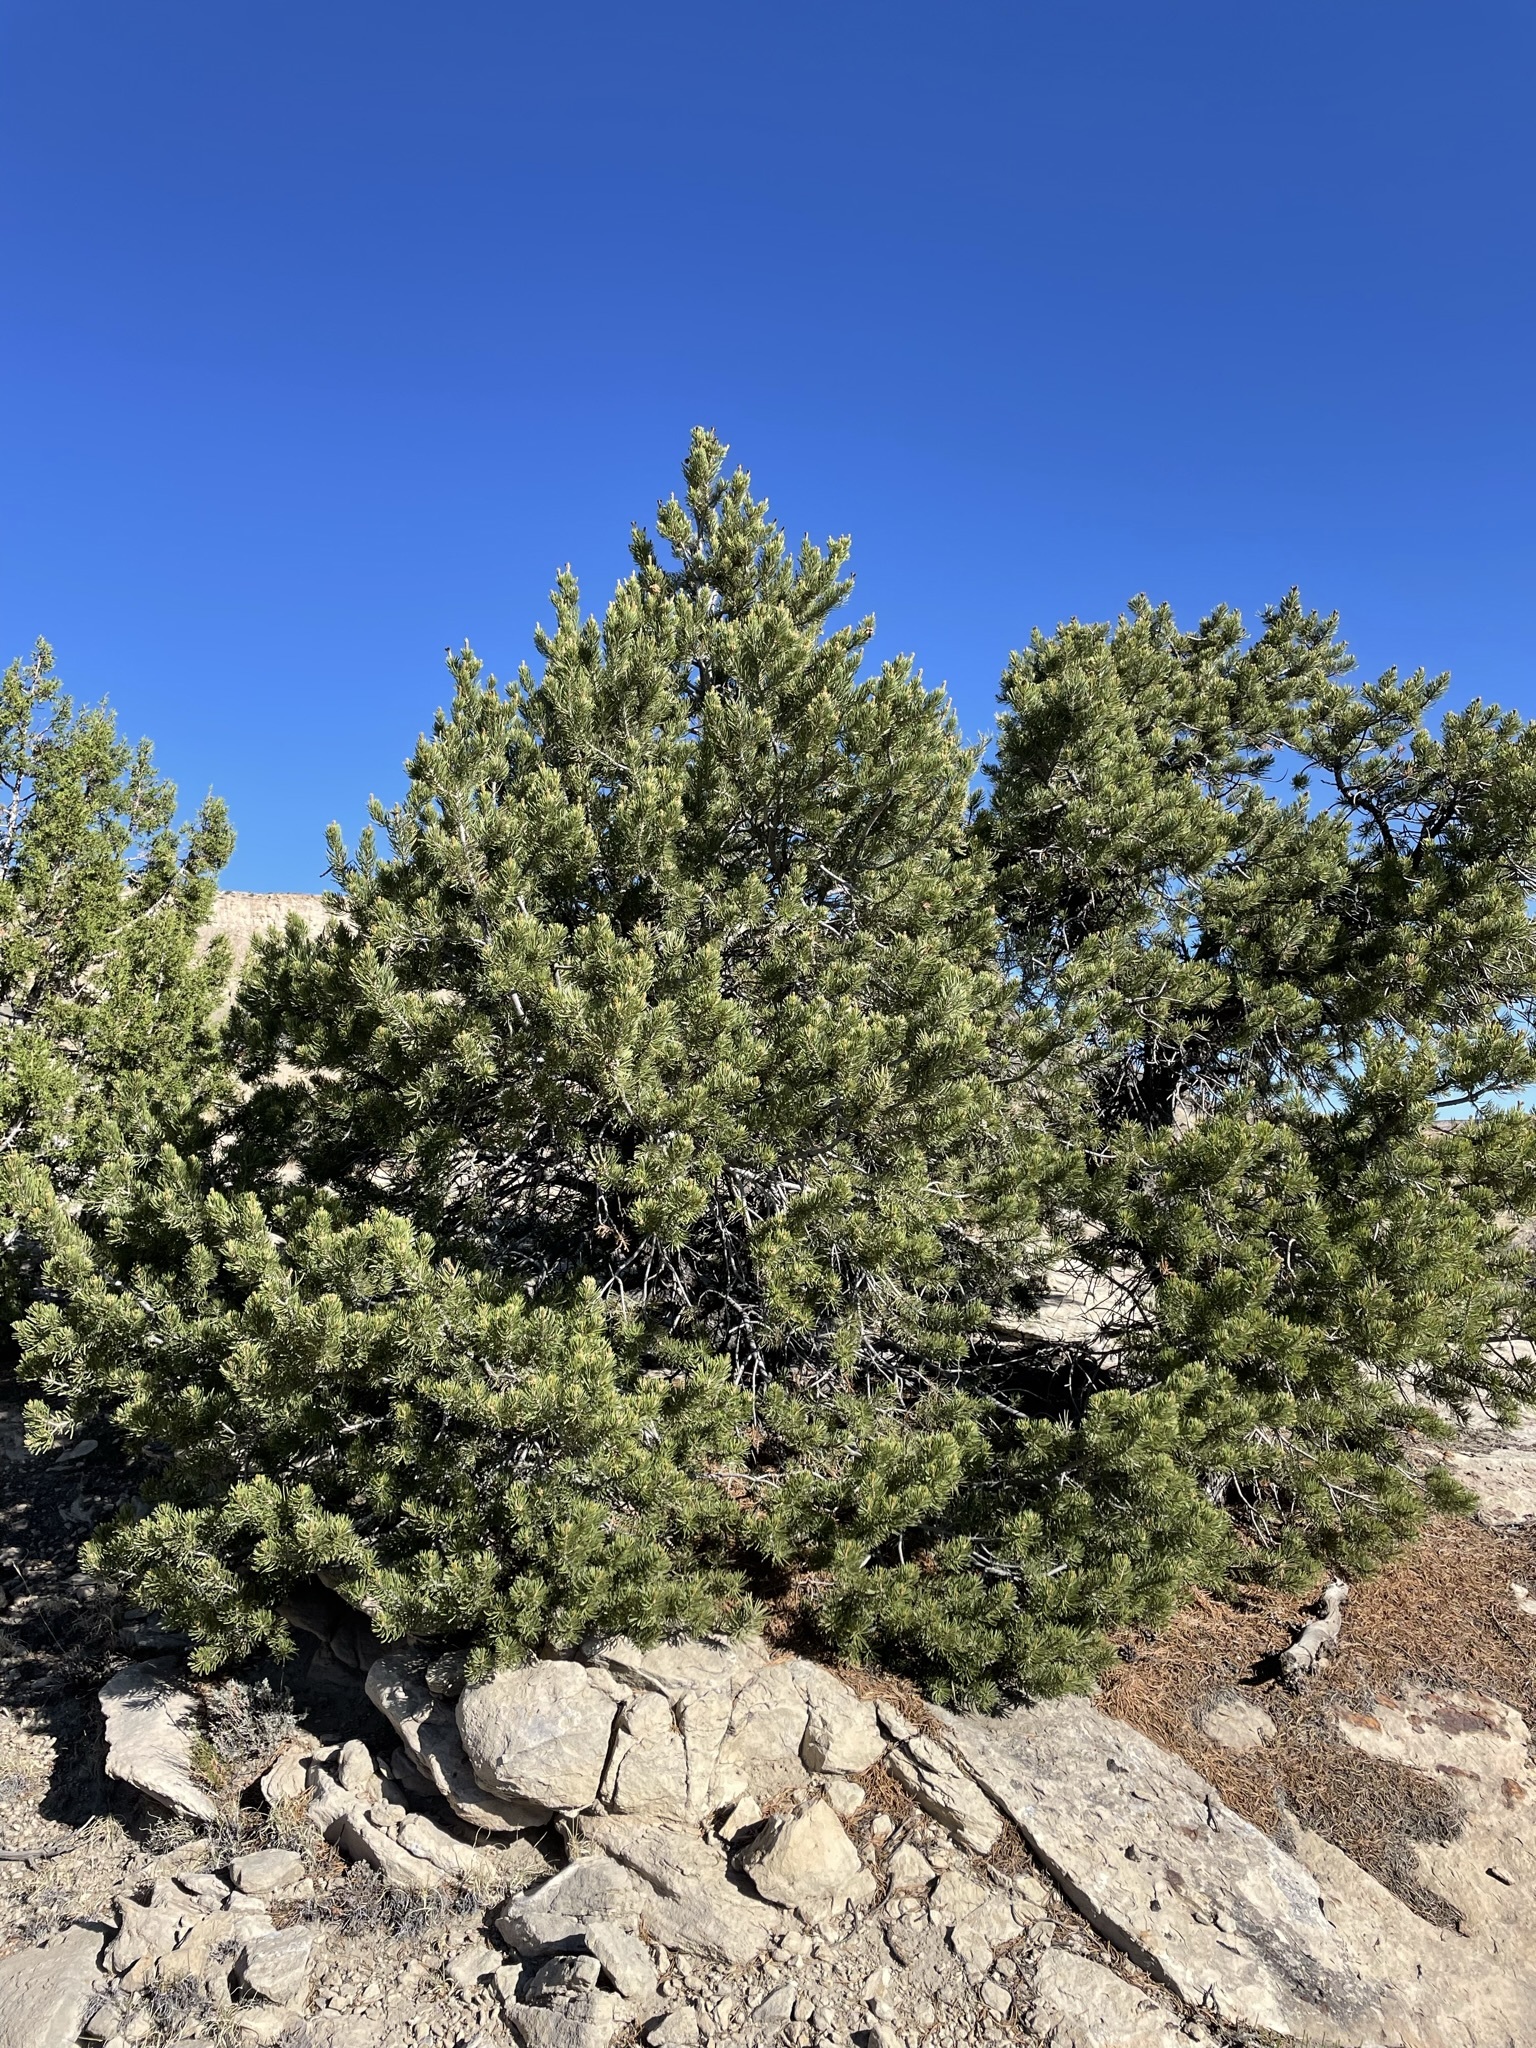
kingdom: Plantae
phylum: Tracheophyta
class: Pinopsida
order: Pinales
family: Pinaceae
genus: Pinus
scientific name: Pinus edulis
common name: Colorado pinyon
